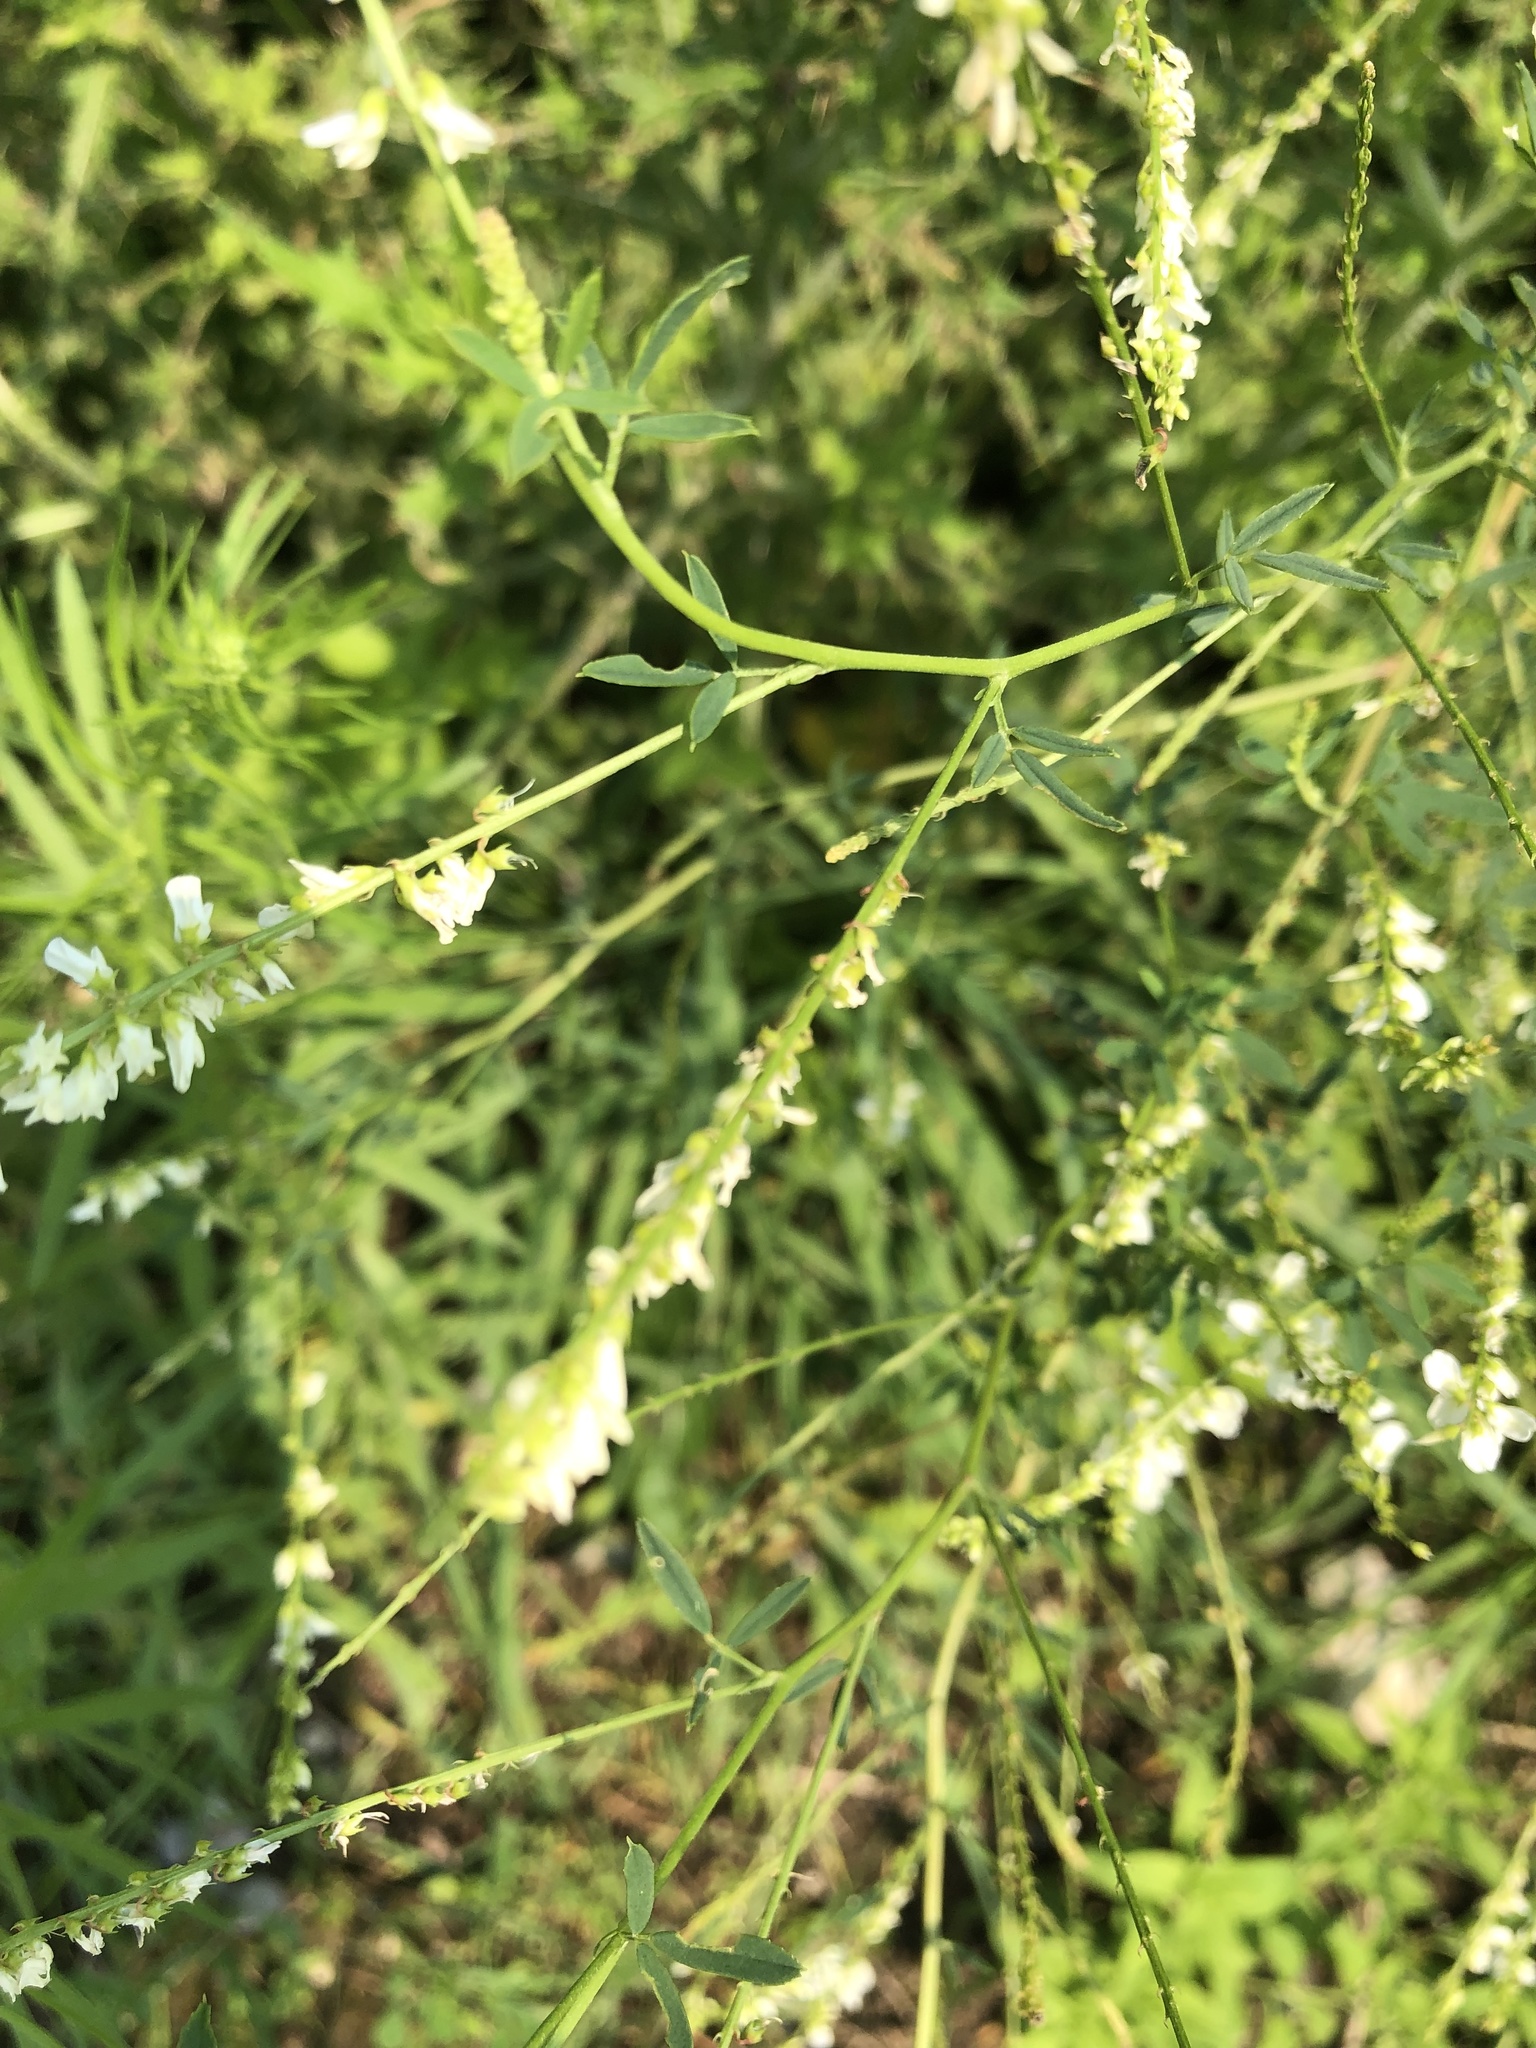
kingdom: Plantae
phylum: Tracheophyta
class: Magnoliopsida
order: Fabales
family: Fabaceae
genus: Melilotus
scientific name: Melilotus albus
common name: White melilot
